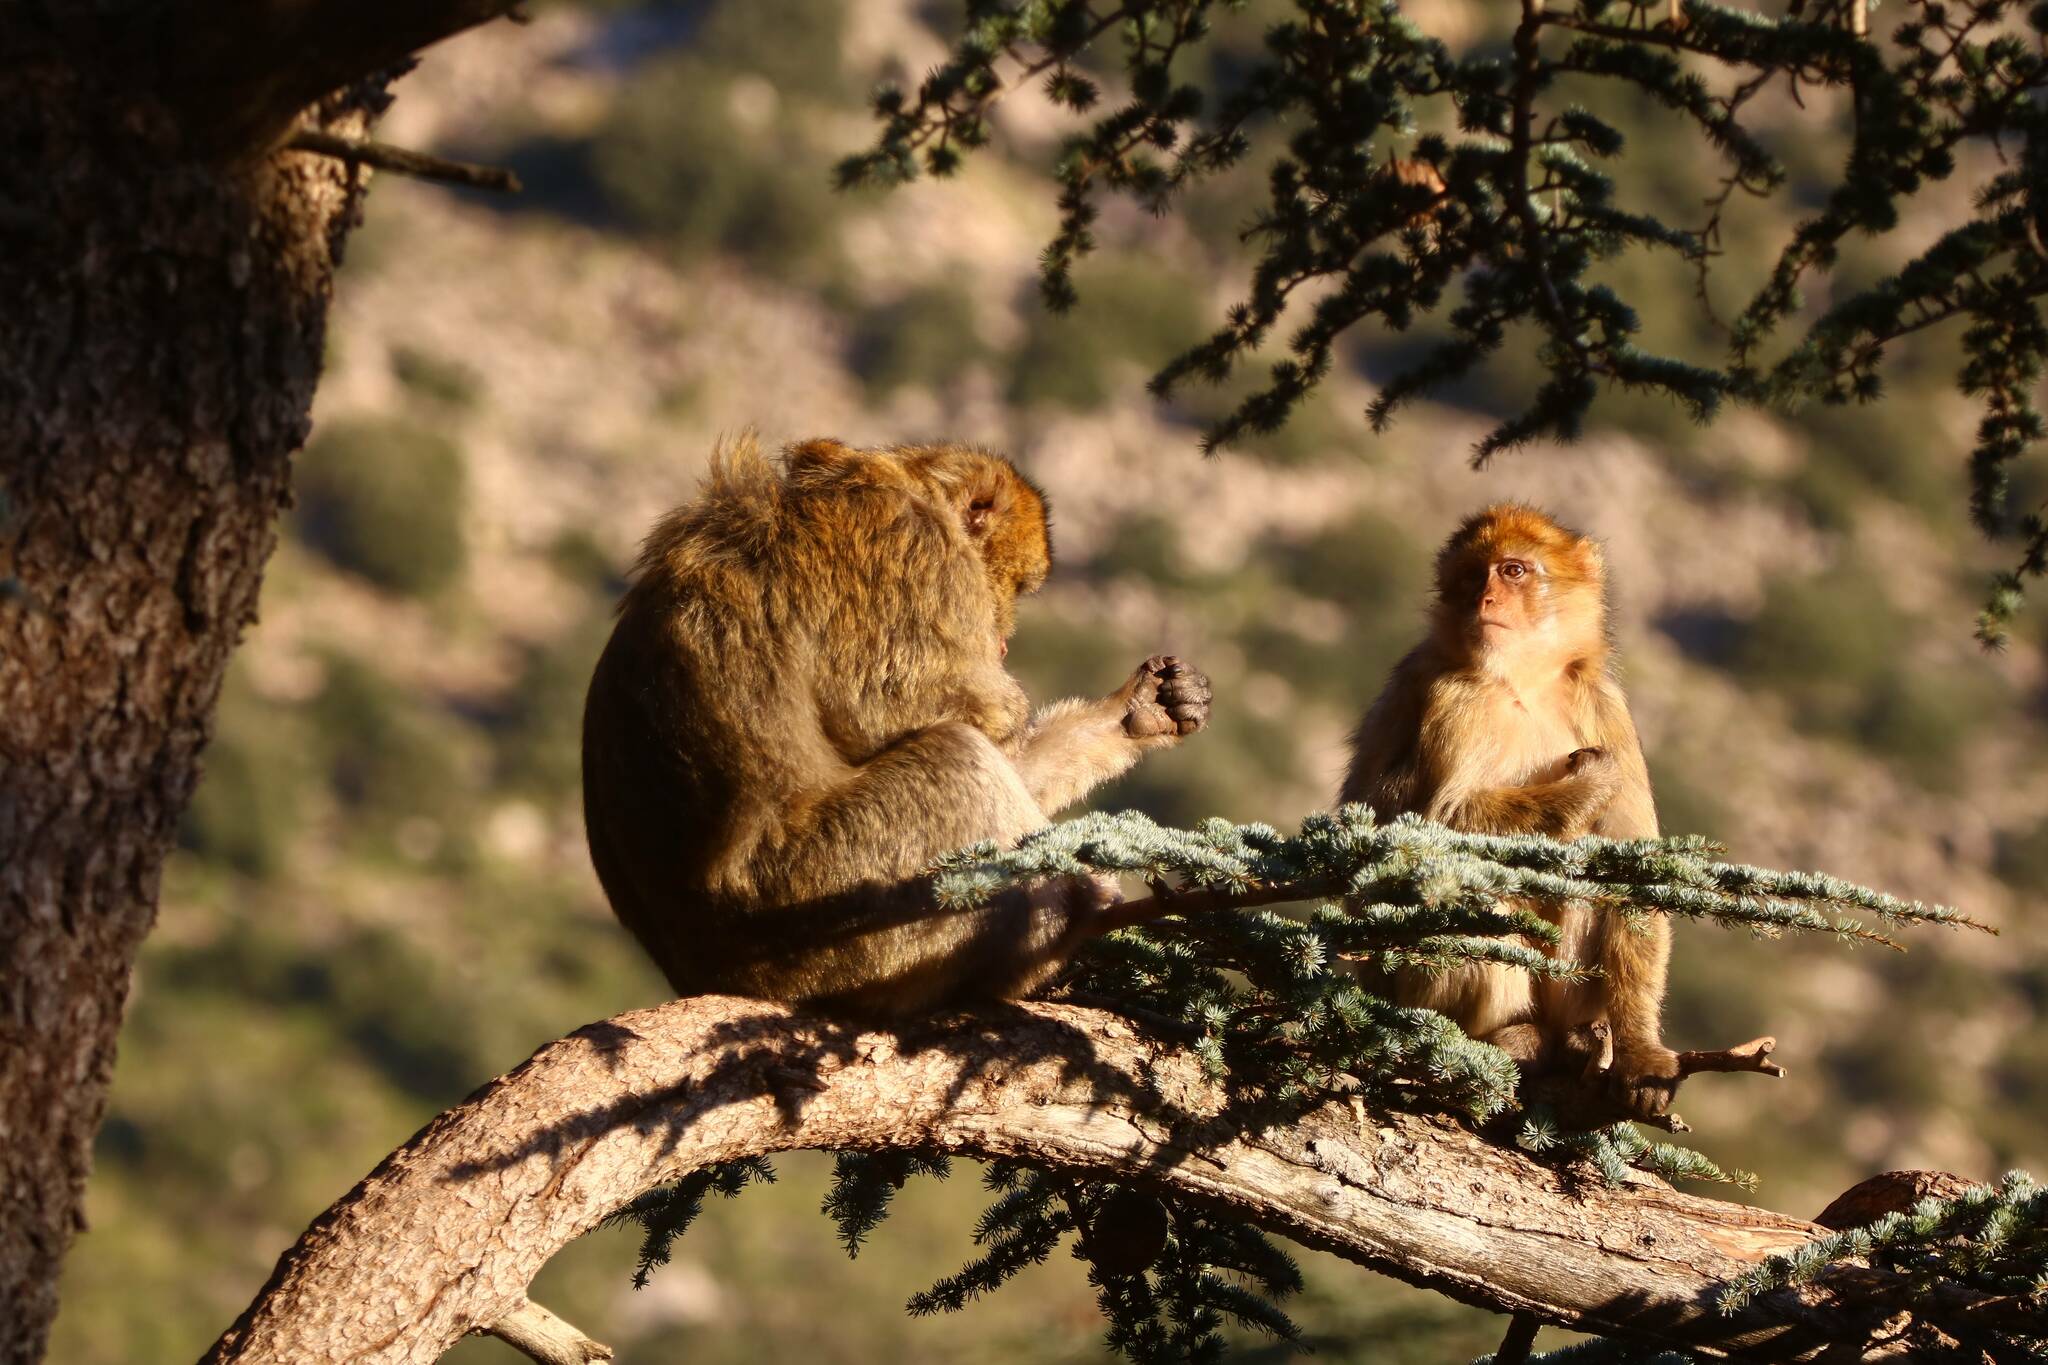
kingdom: Animalia
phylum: Chordata
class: Mammalia
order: Primates
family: Cercopithecidae
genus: Macaca
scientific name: Macaca sylvanus
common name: Barbary macaque
